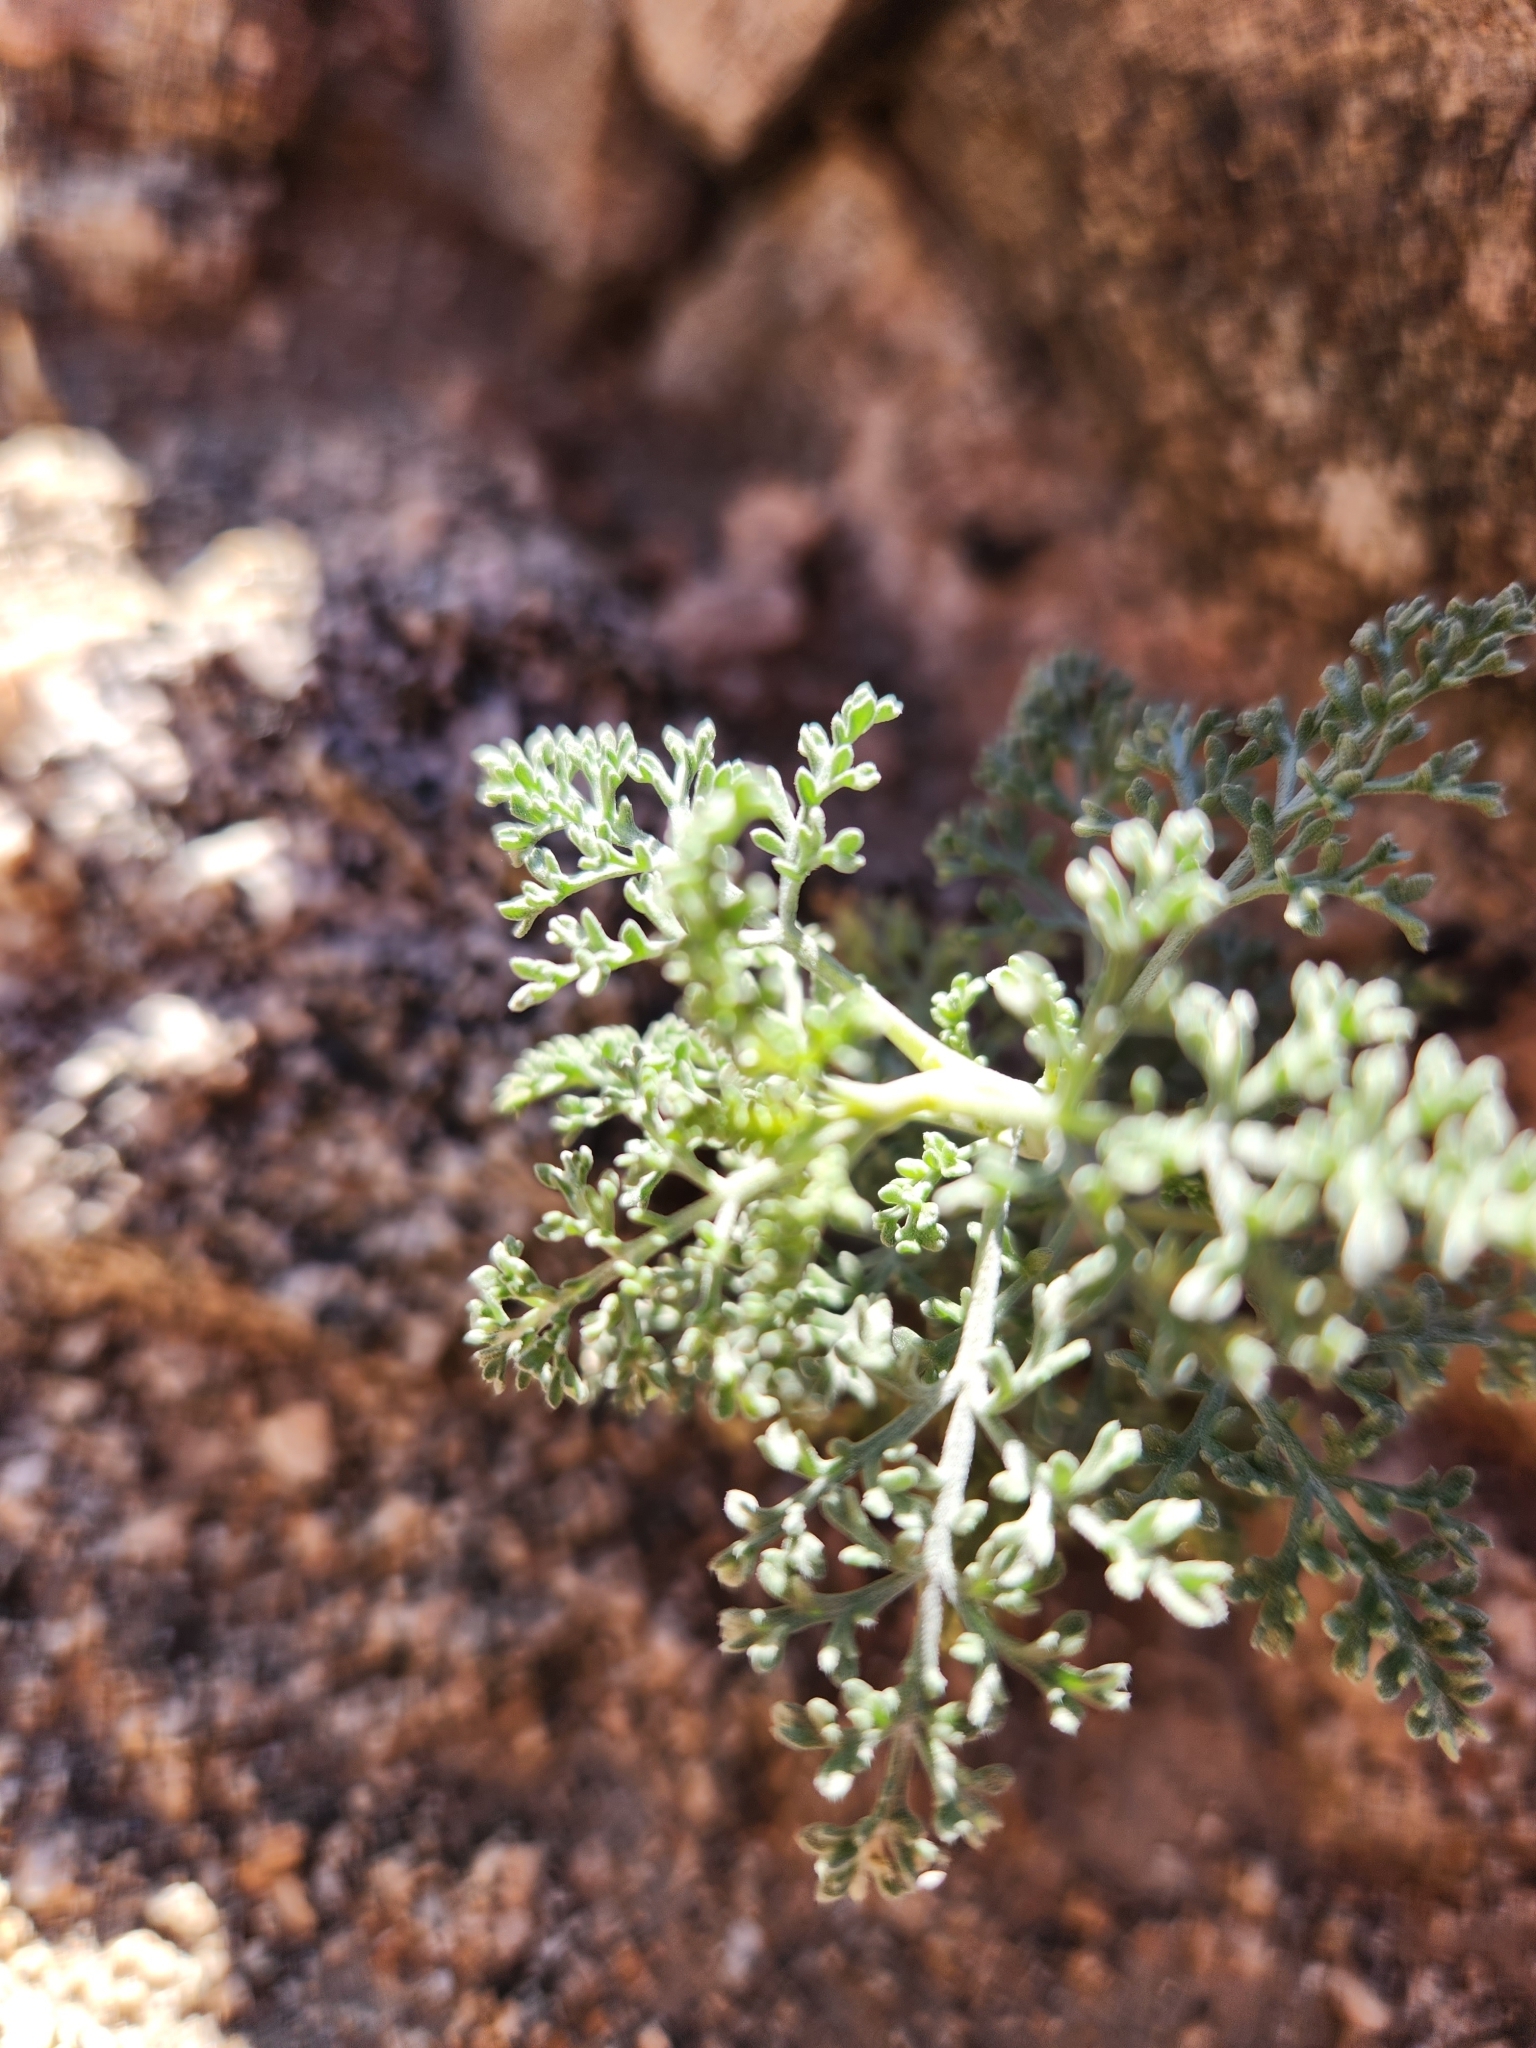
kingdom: Plantae
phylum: Tracheophyta
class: Magnoliopsida
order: Asterales
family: Asteraceae
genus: Ambrosia
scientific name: Ambrosia dumosa
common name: Bur-sage
